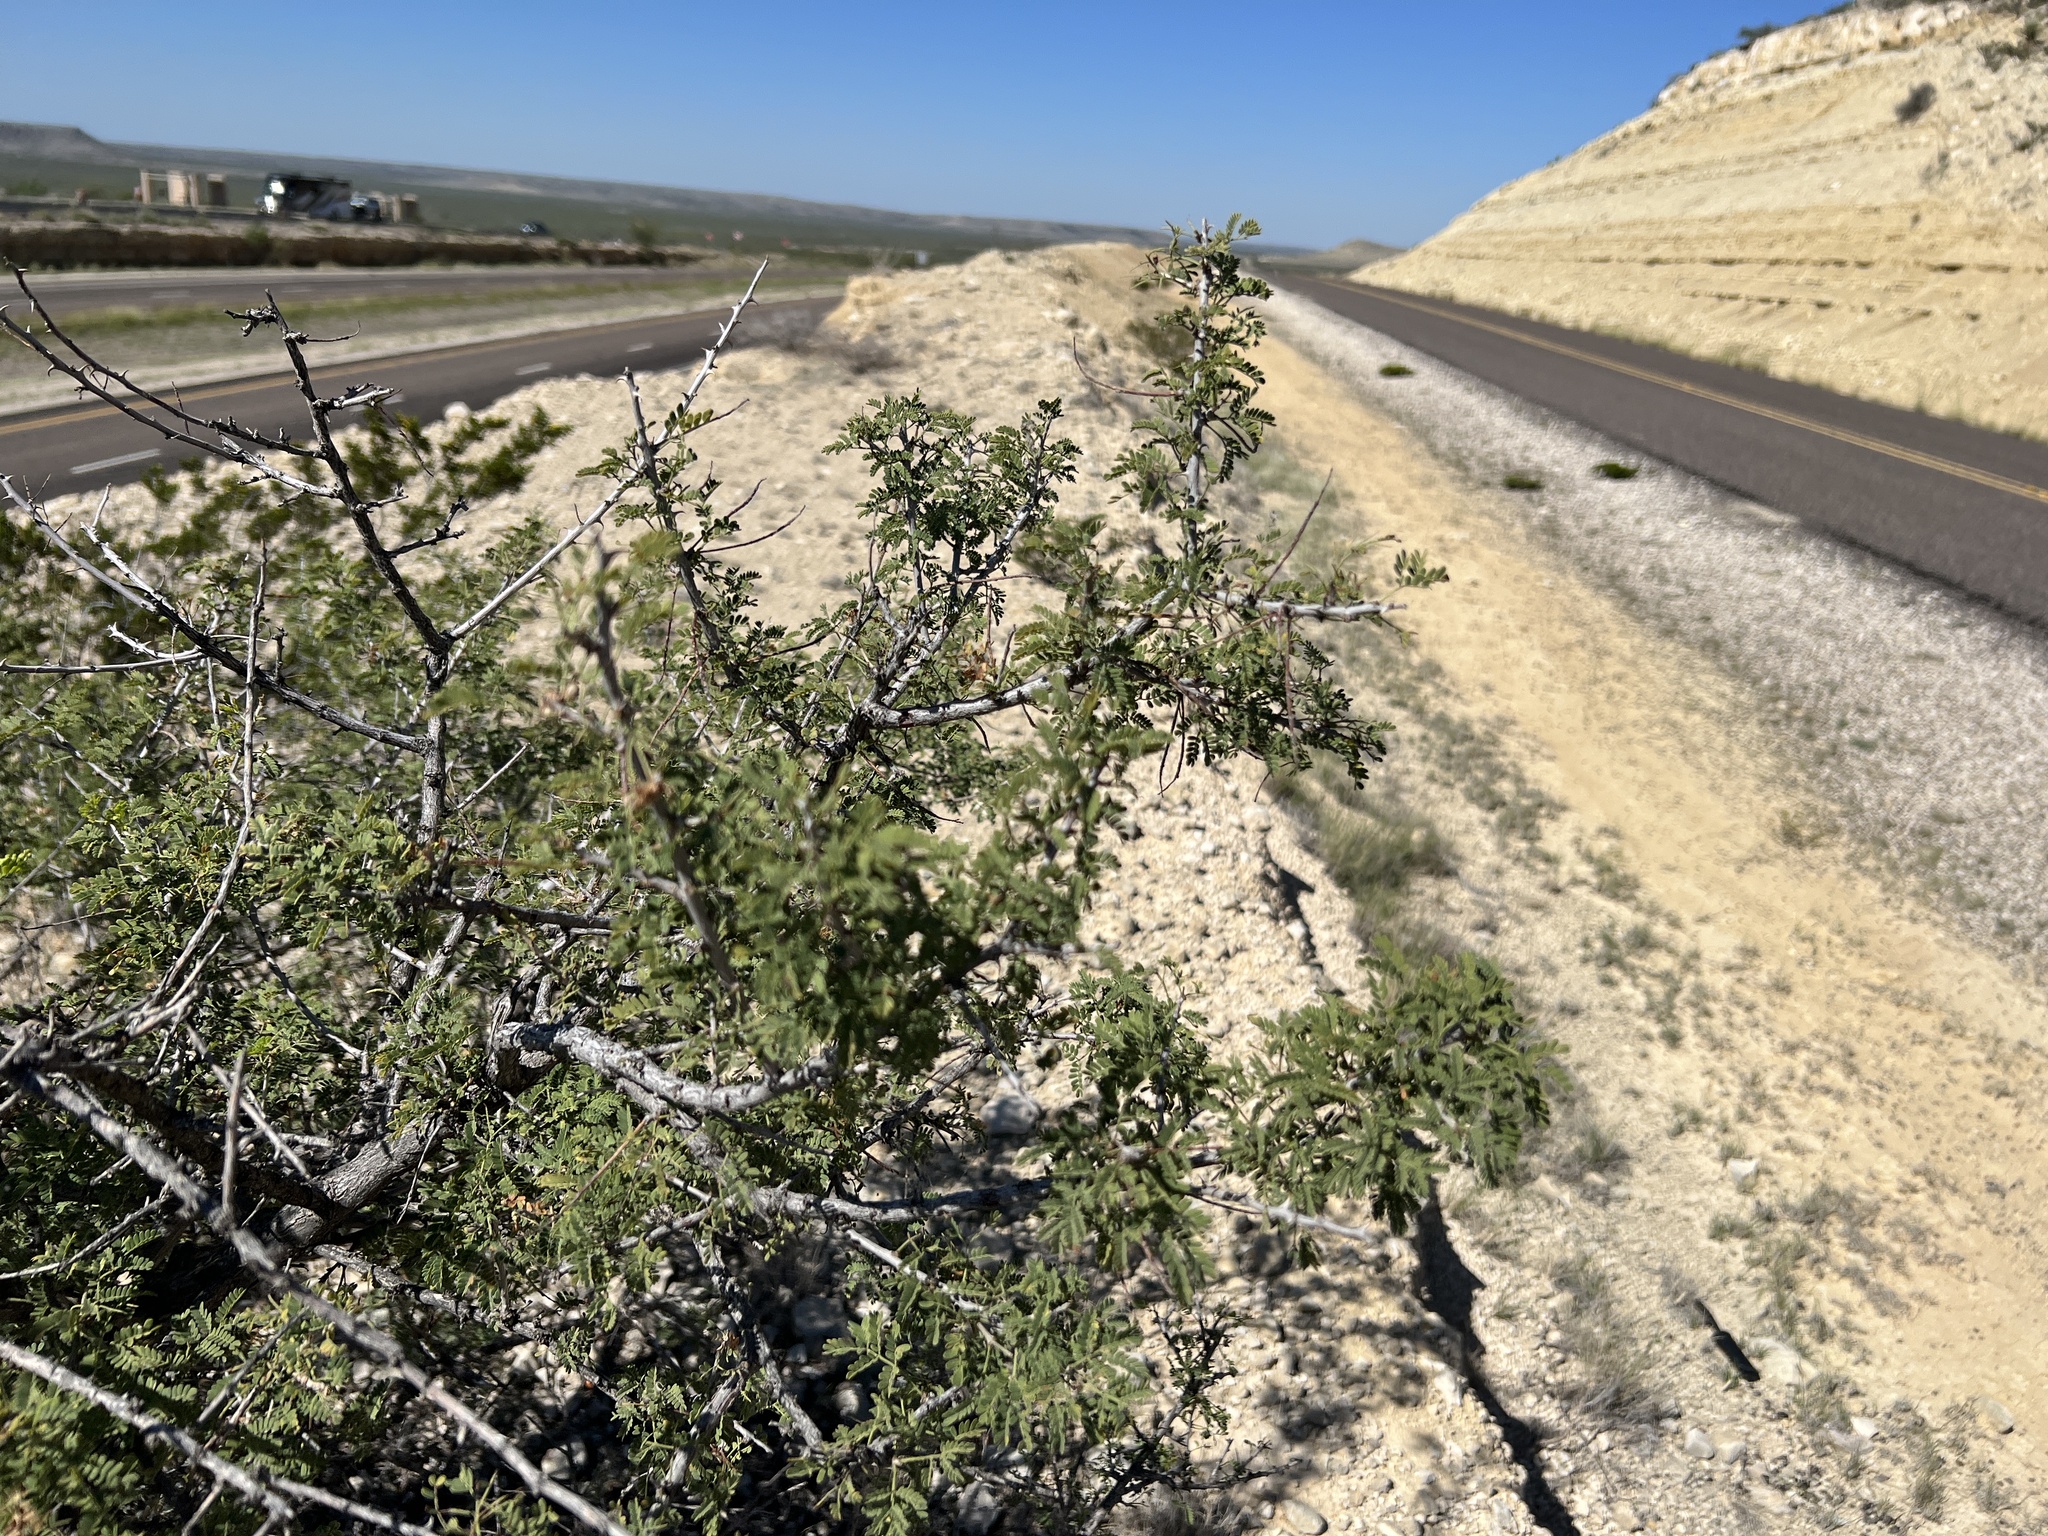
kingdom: Plantae
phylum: Tracheophyta
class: Magnoliopsida
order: Fabales
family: Fabaceae
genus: Senegalia
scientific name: Senegalia greggii
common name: Texas-mimosa
